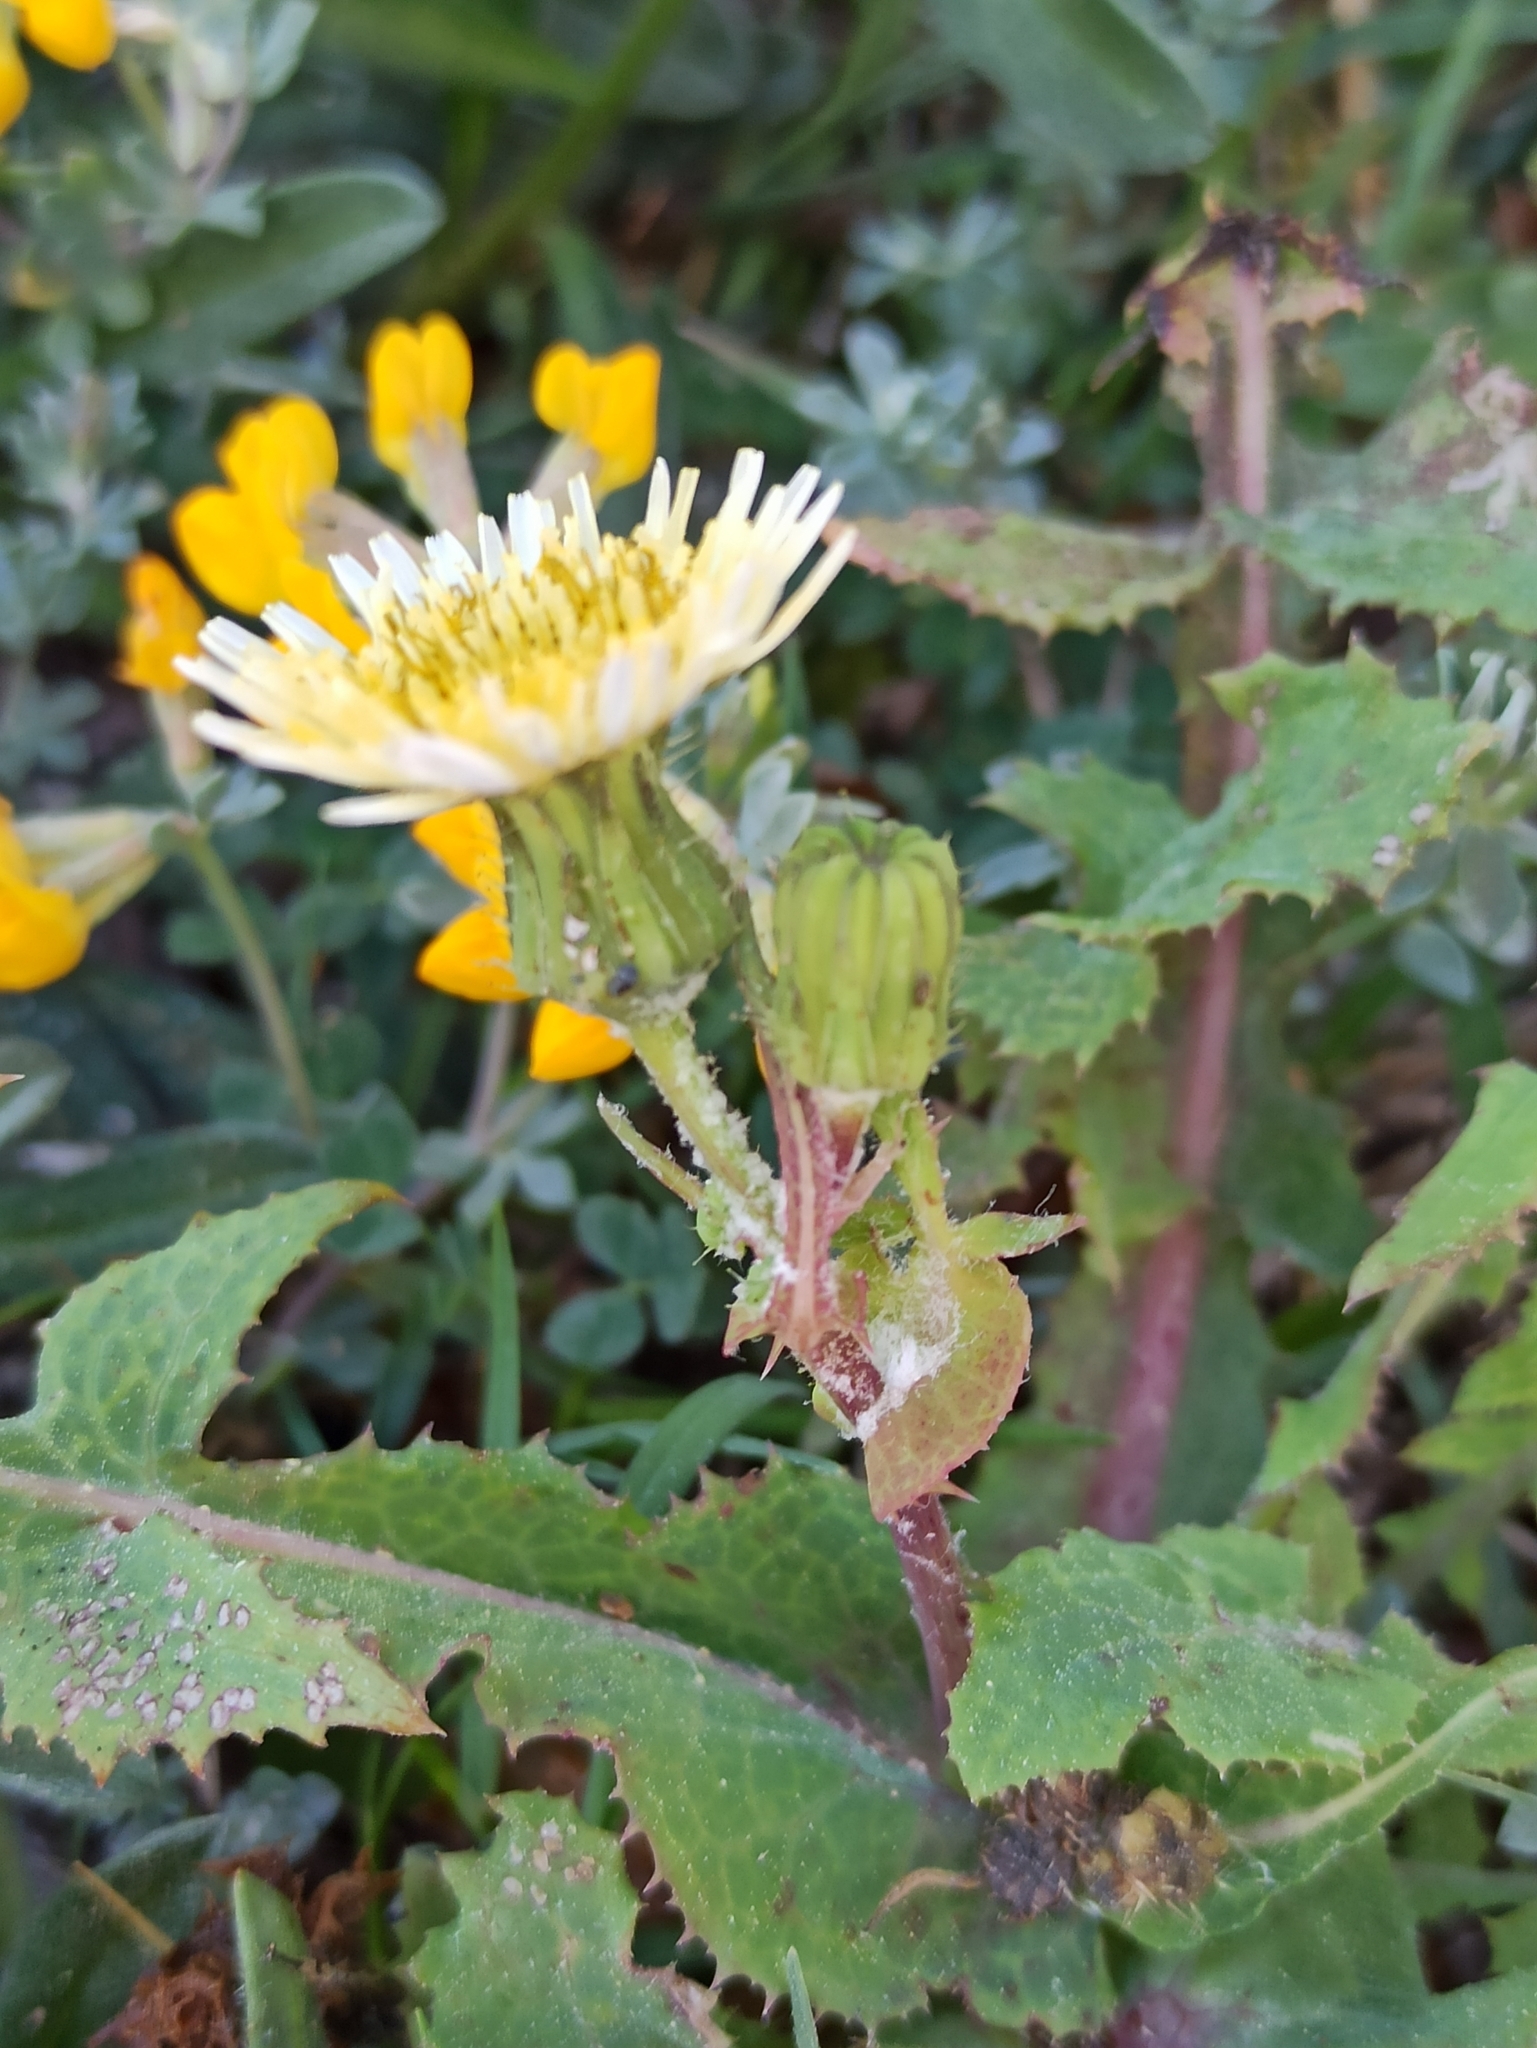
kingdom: Plantae
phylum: Tracheophyta
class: Magnoliopsida
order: Asterales
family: Asteraceae
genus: Sonchus
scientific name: Sonchus oleraceus
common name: Common sowthistle
